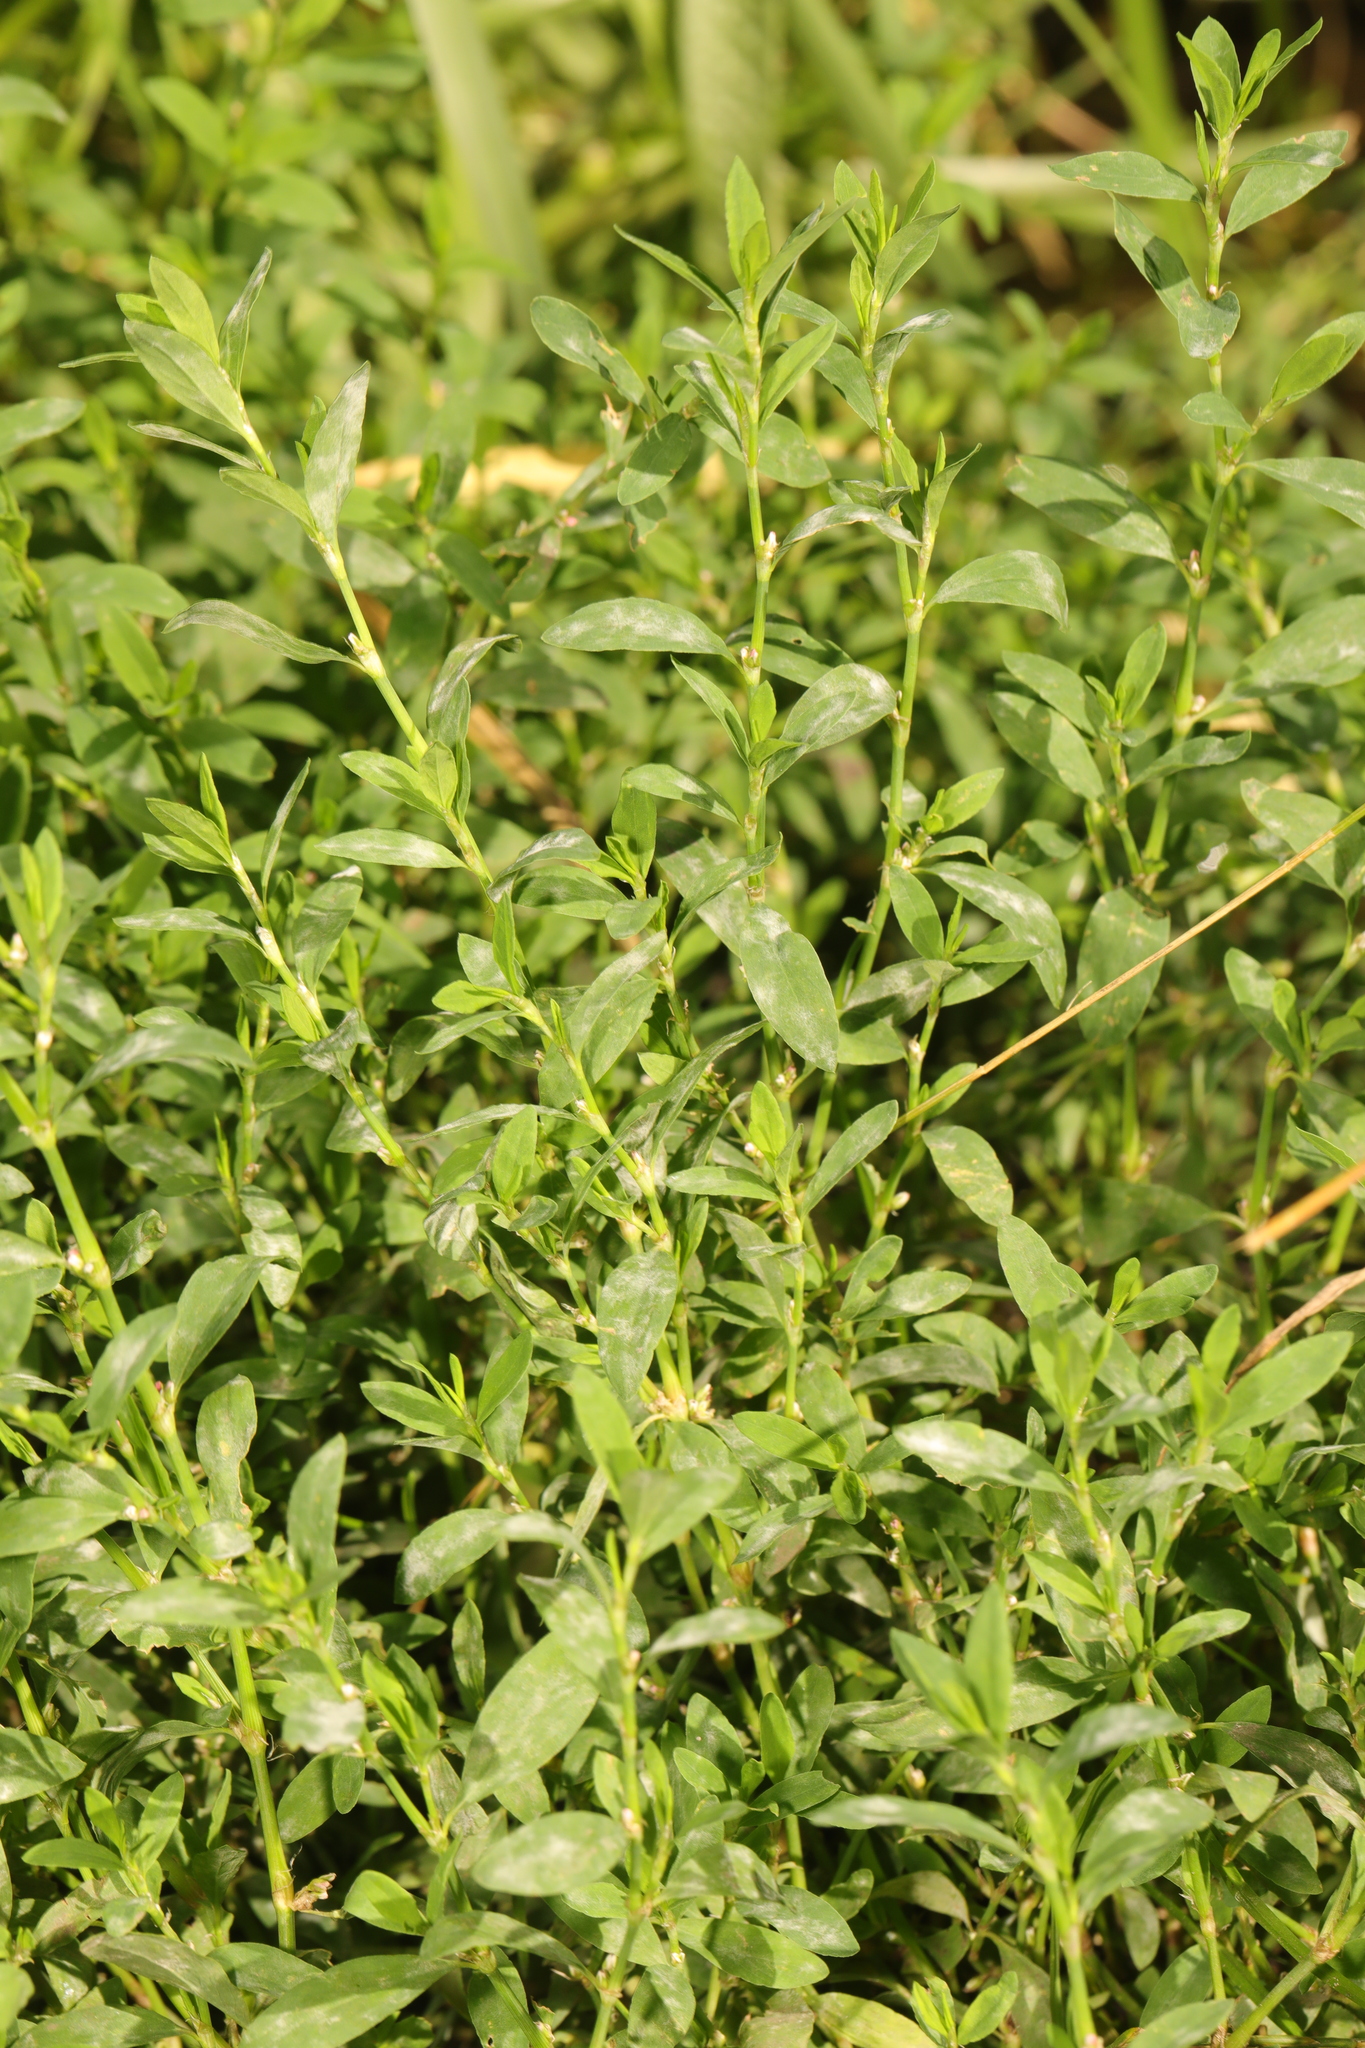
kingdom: Plantae
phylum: Tracheophyta
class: Magnoliopsida
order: Caryophyllales
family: Polygonaceae
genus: Polygonum
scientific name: Polygonum aviculare
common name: Prostrate knotweed
